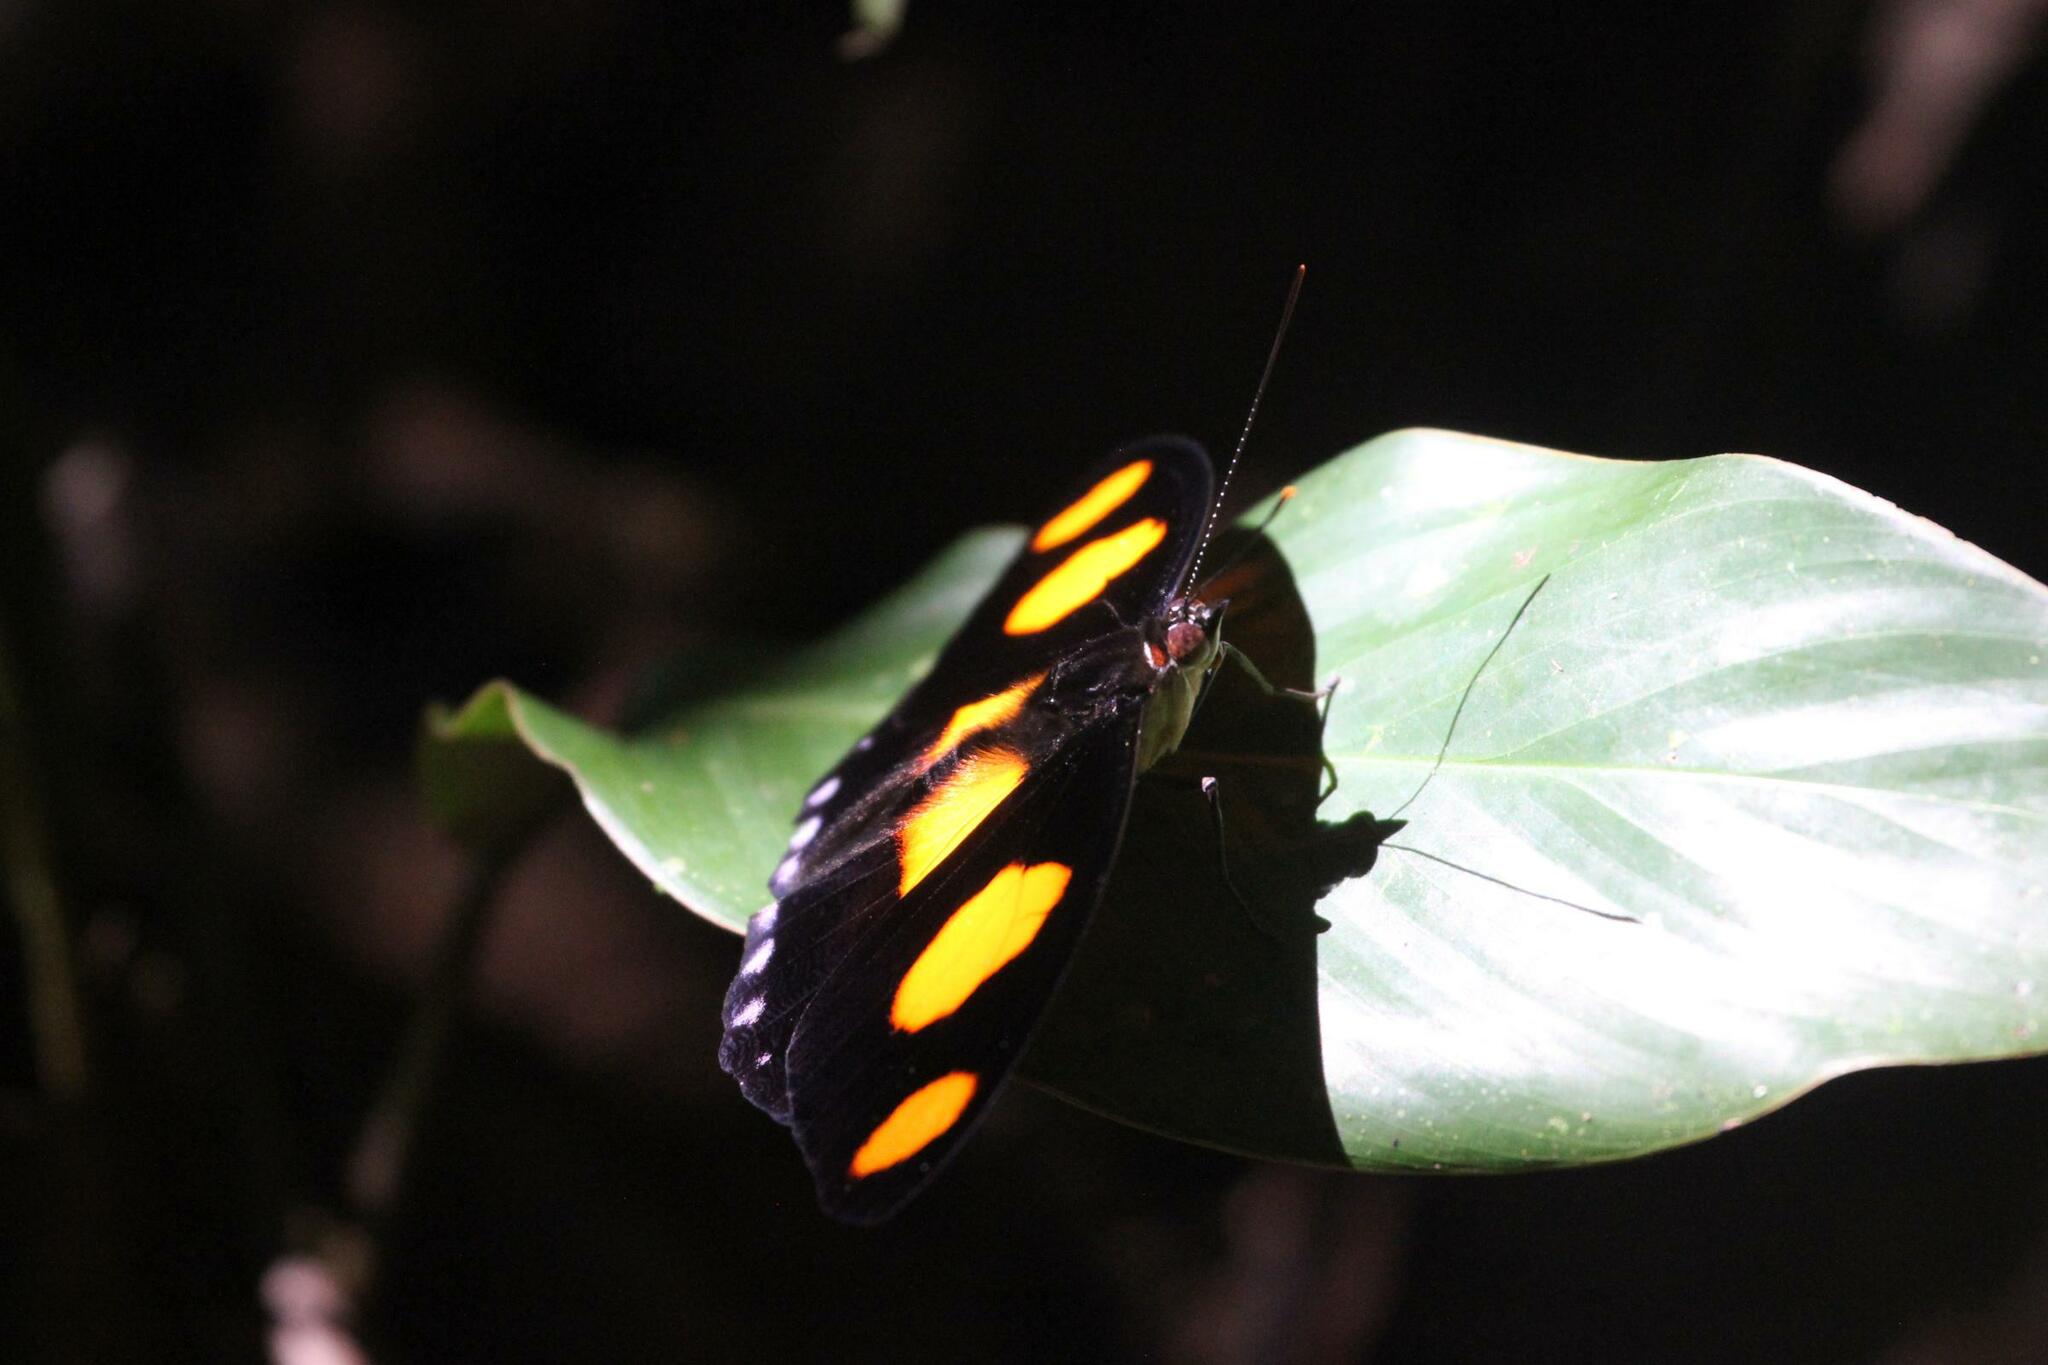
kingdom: Animalia
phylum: Arthropoda
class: Insecta
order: Lepidoptera
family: Nymphalidae
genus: Catonephele
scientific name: Catonephele numilia
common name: Blue-frosted banner
